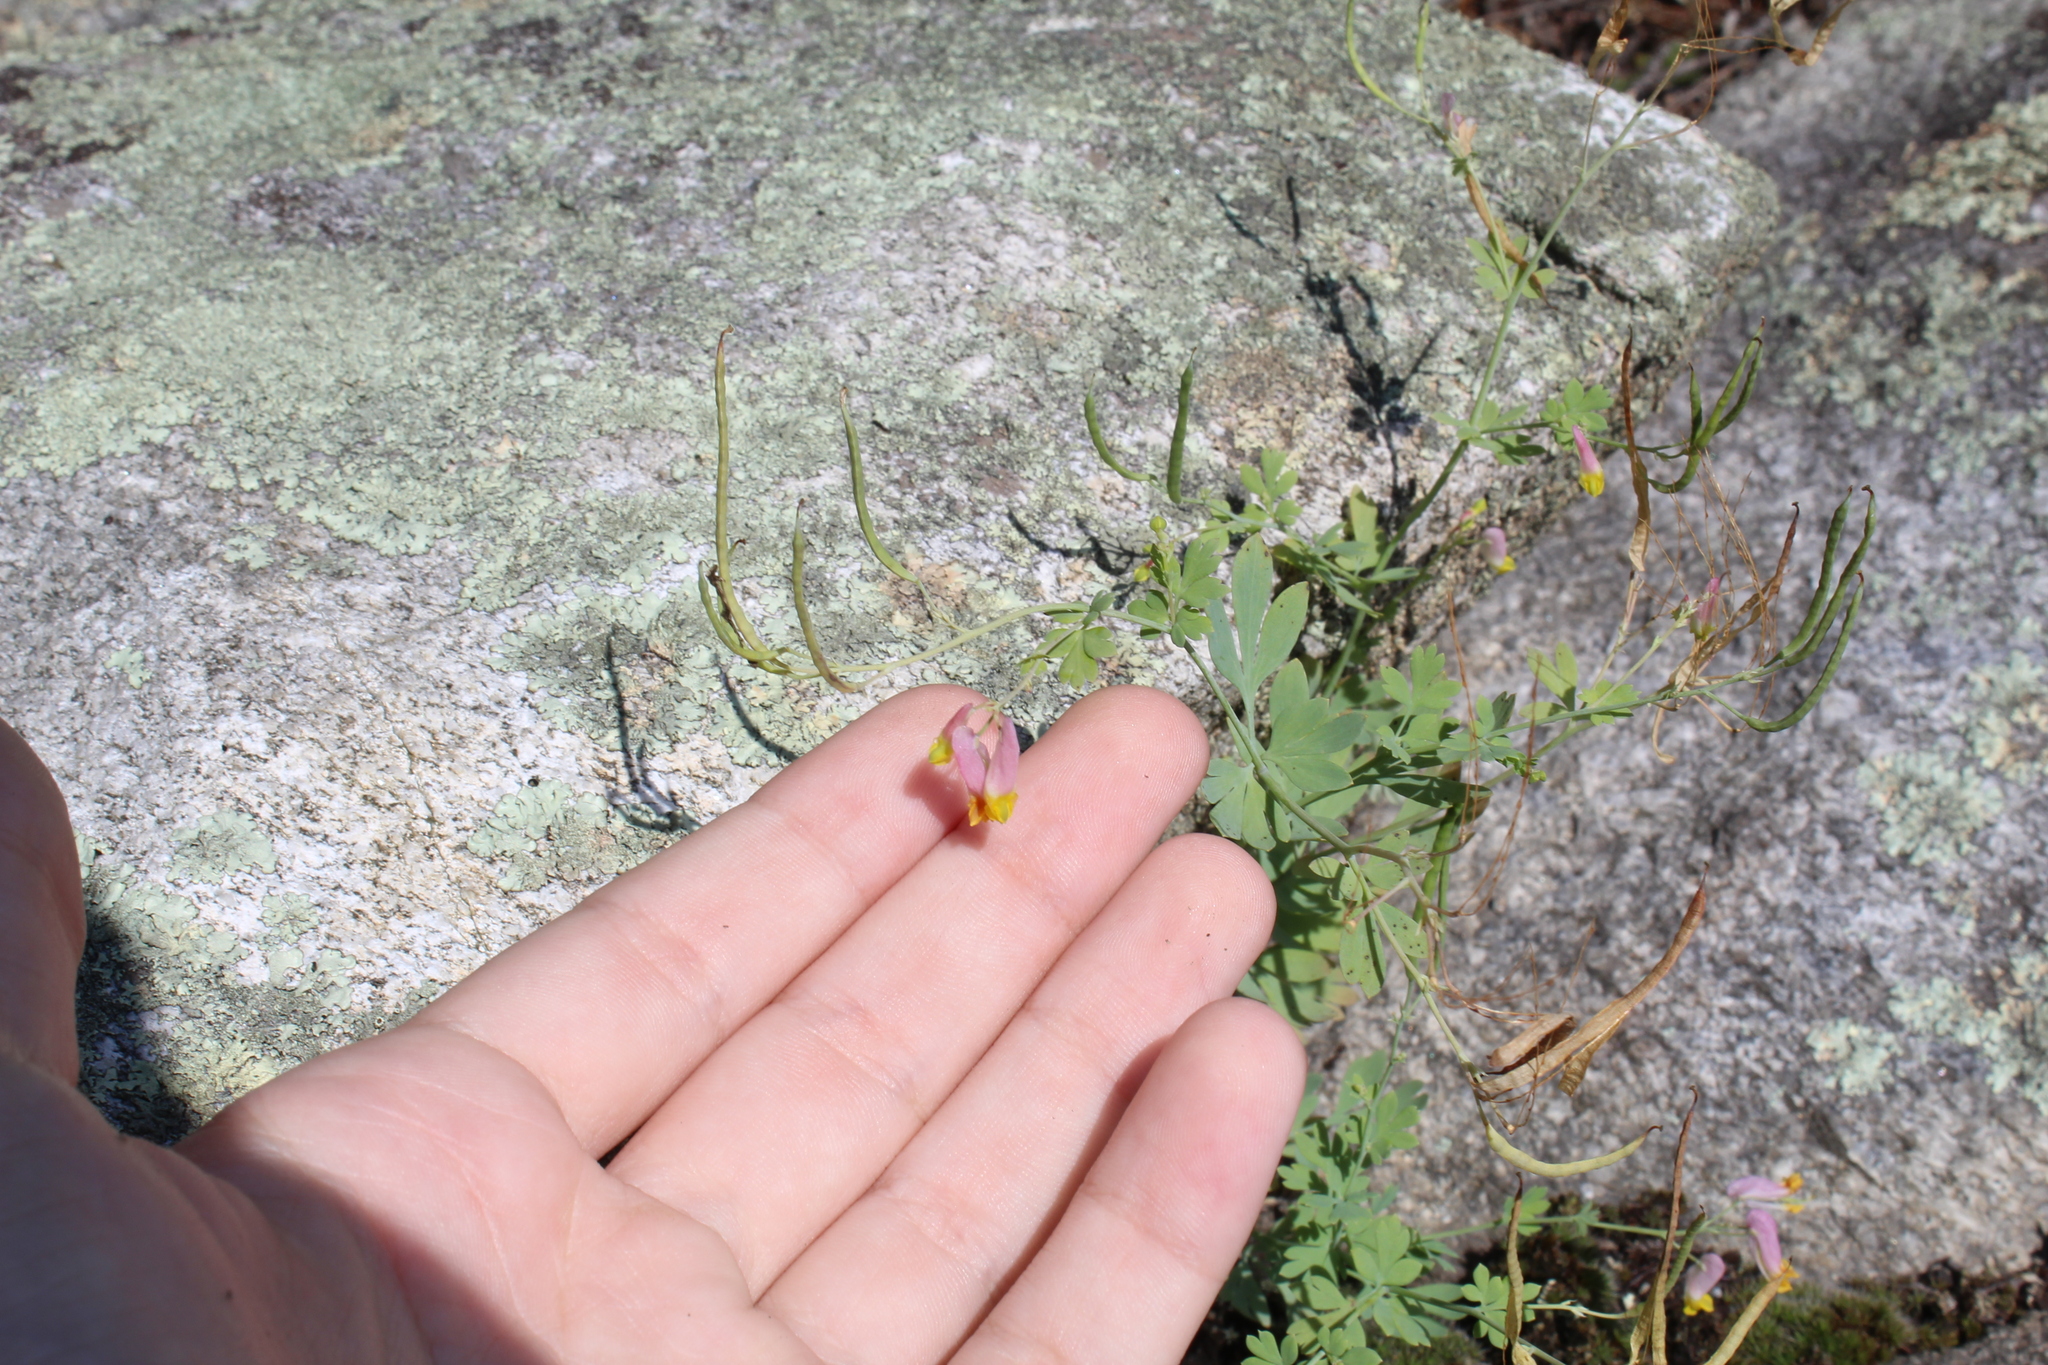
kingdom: Plantae
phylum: Tracheophyta
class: Magnoliopsida
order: Ranunculales
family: Papaveraceae
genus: Capnoides
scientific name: Capnoides sempervirens
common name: Rock harlequin
